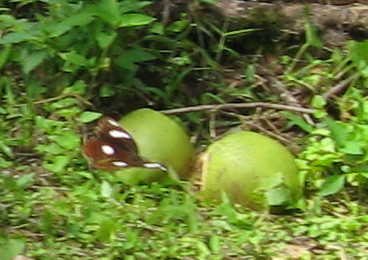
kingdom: Animalia
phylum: Arthropoda
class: Insecta
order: Lepidoptera
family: Nymphalidae
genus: Hypolimnas
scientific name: Hypolimnas bolina
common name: Great eggfly
